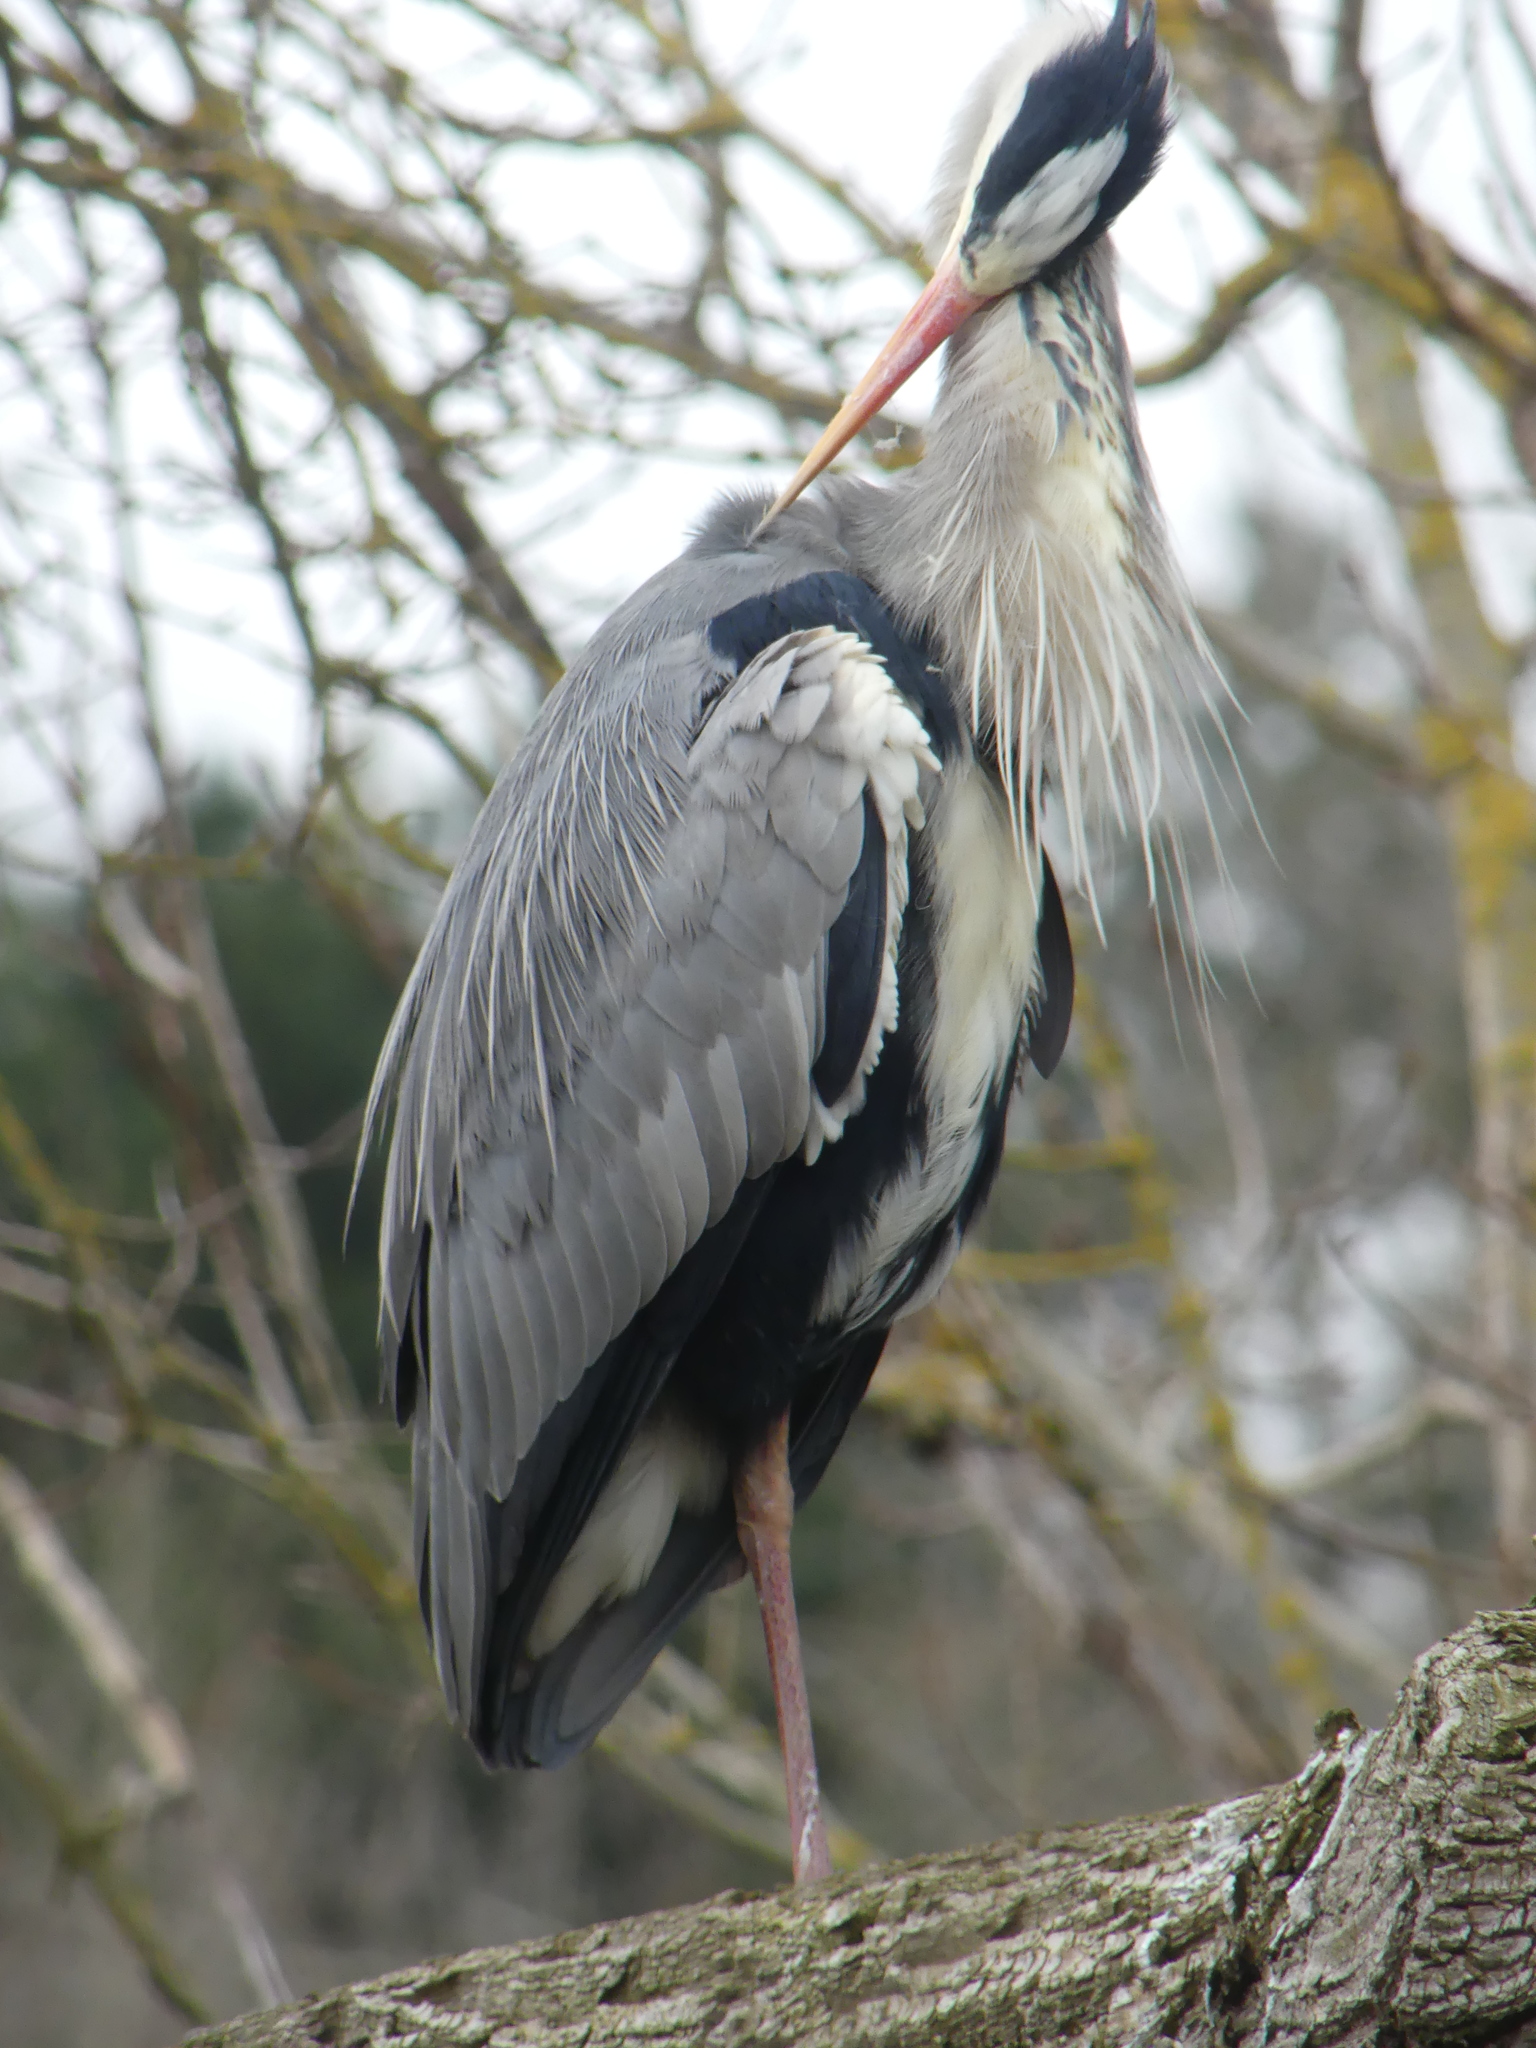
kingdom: Animalia
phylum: Chordata
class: Aves
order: Pelecaniformes
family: Ardeidae
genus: Ardea
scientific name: Ardea cinerea
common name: Grey heron
